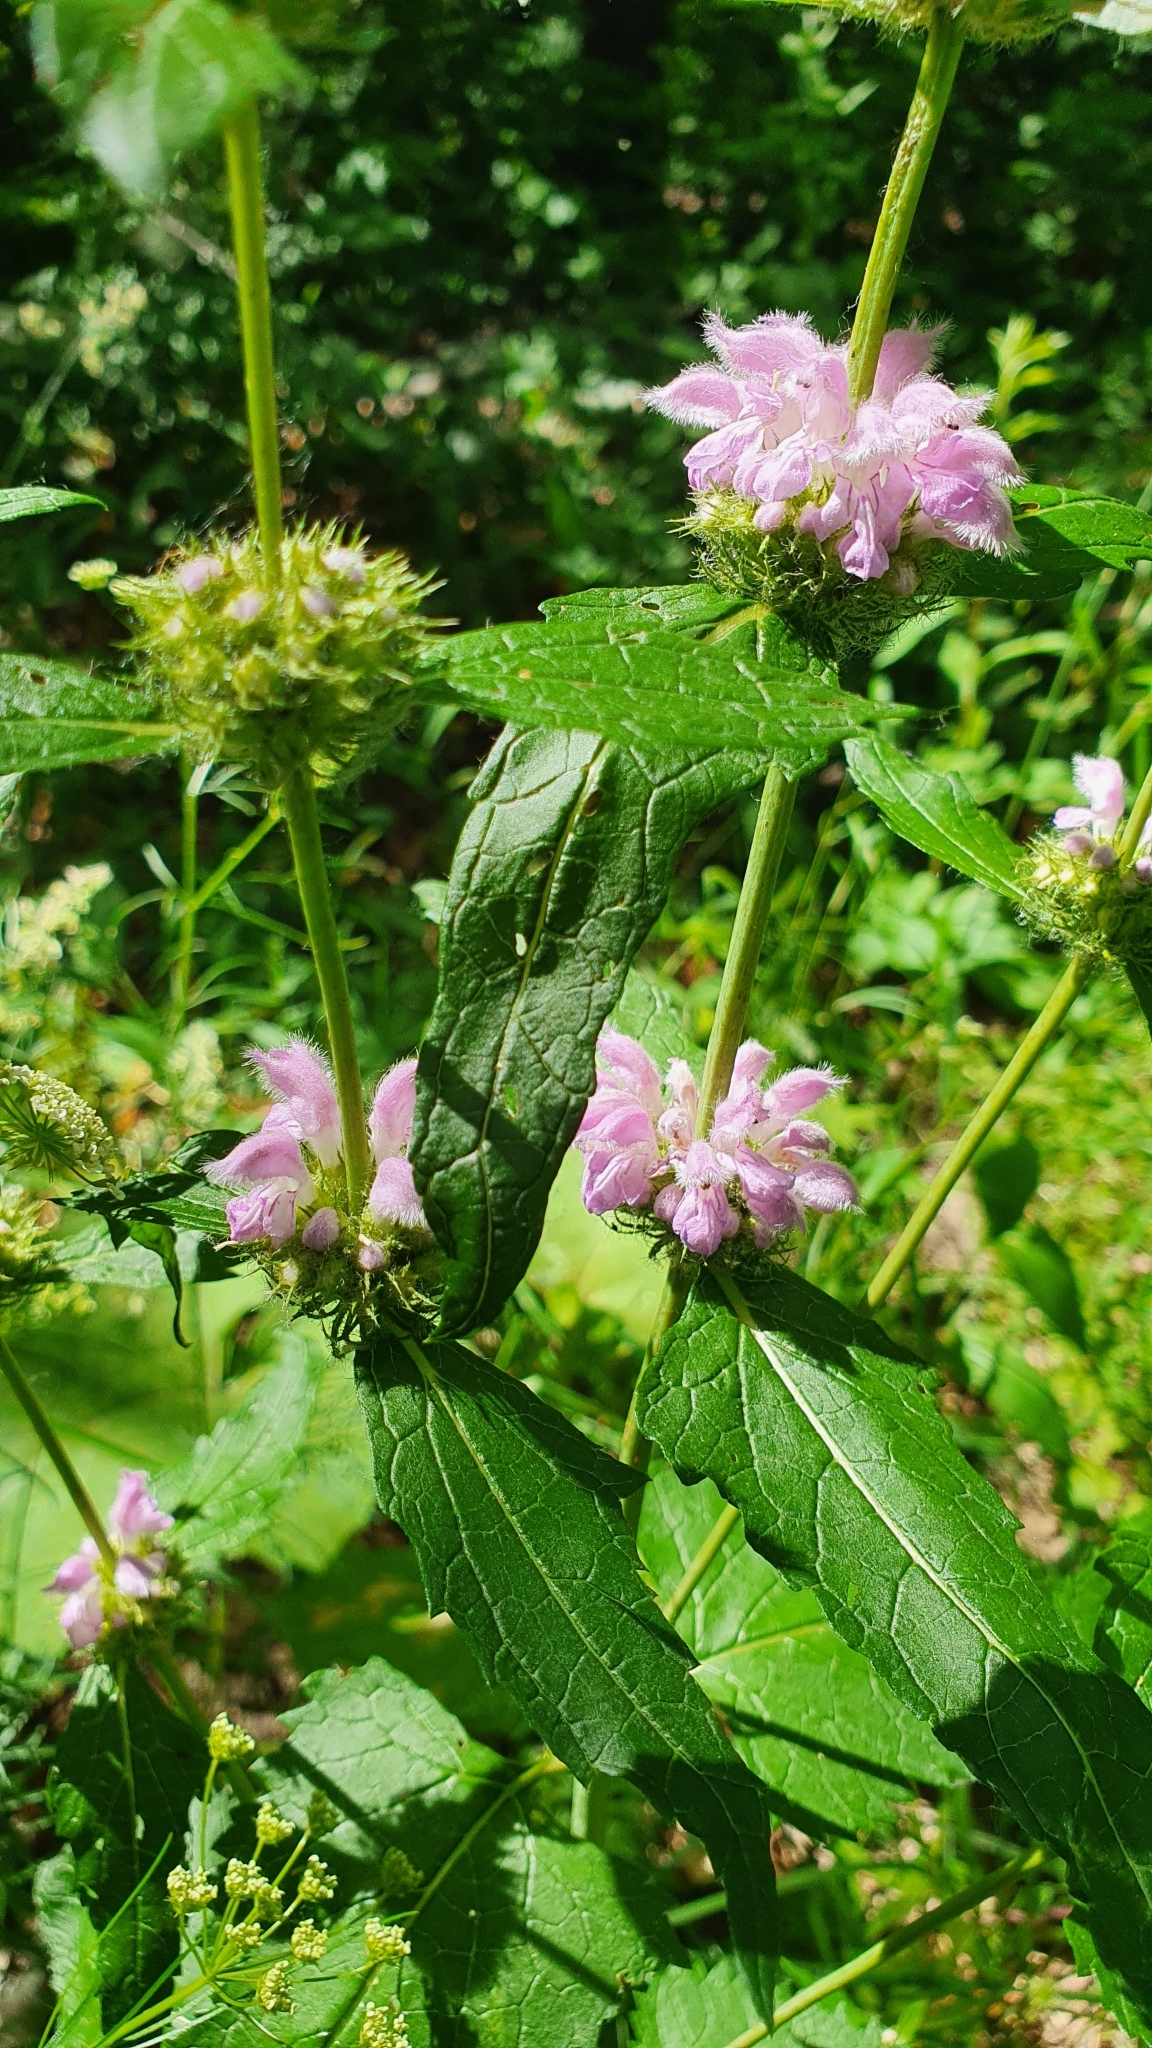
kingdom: Plantae
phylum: Tracheophyta
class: Magnoliopsida
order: Lamiales
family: Lamiaceae
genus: Phlomoides
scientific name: Phlomoides tuberosa
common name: Tuberous jerusalem sage
